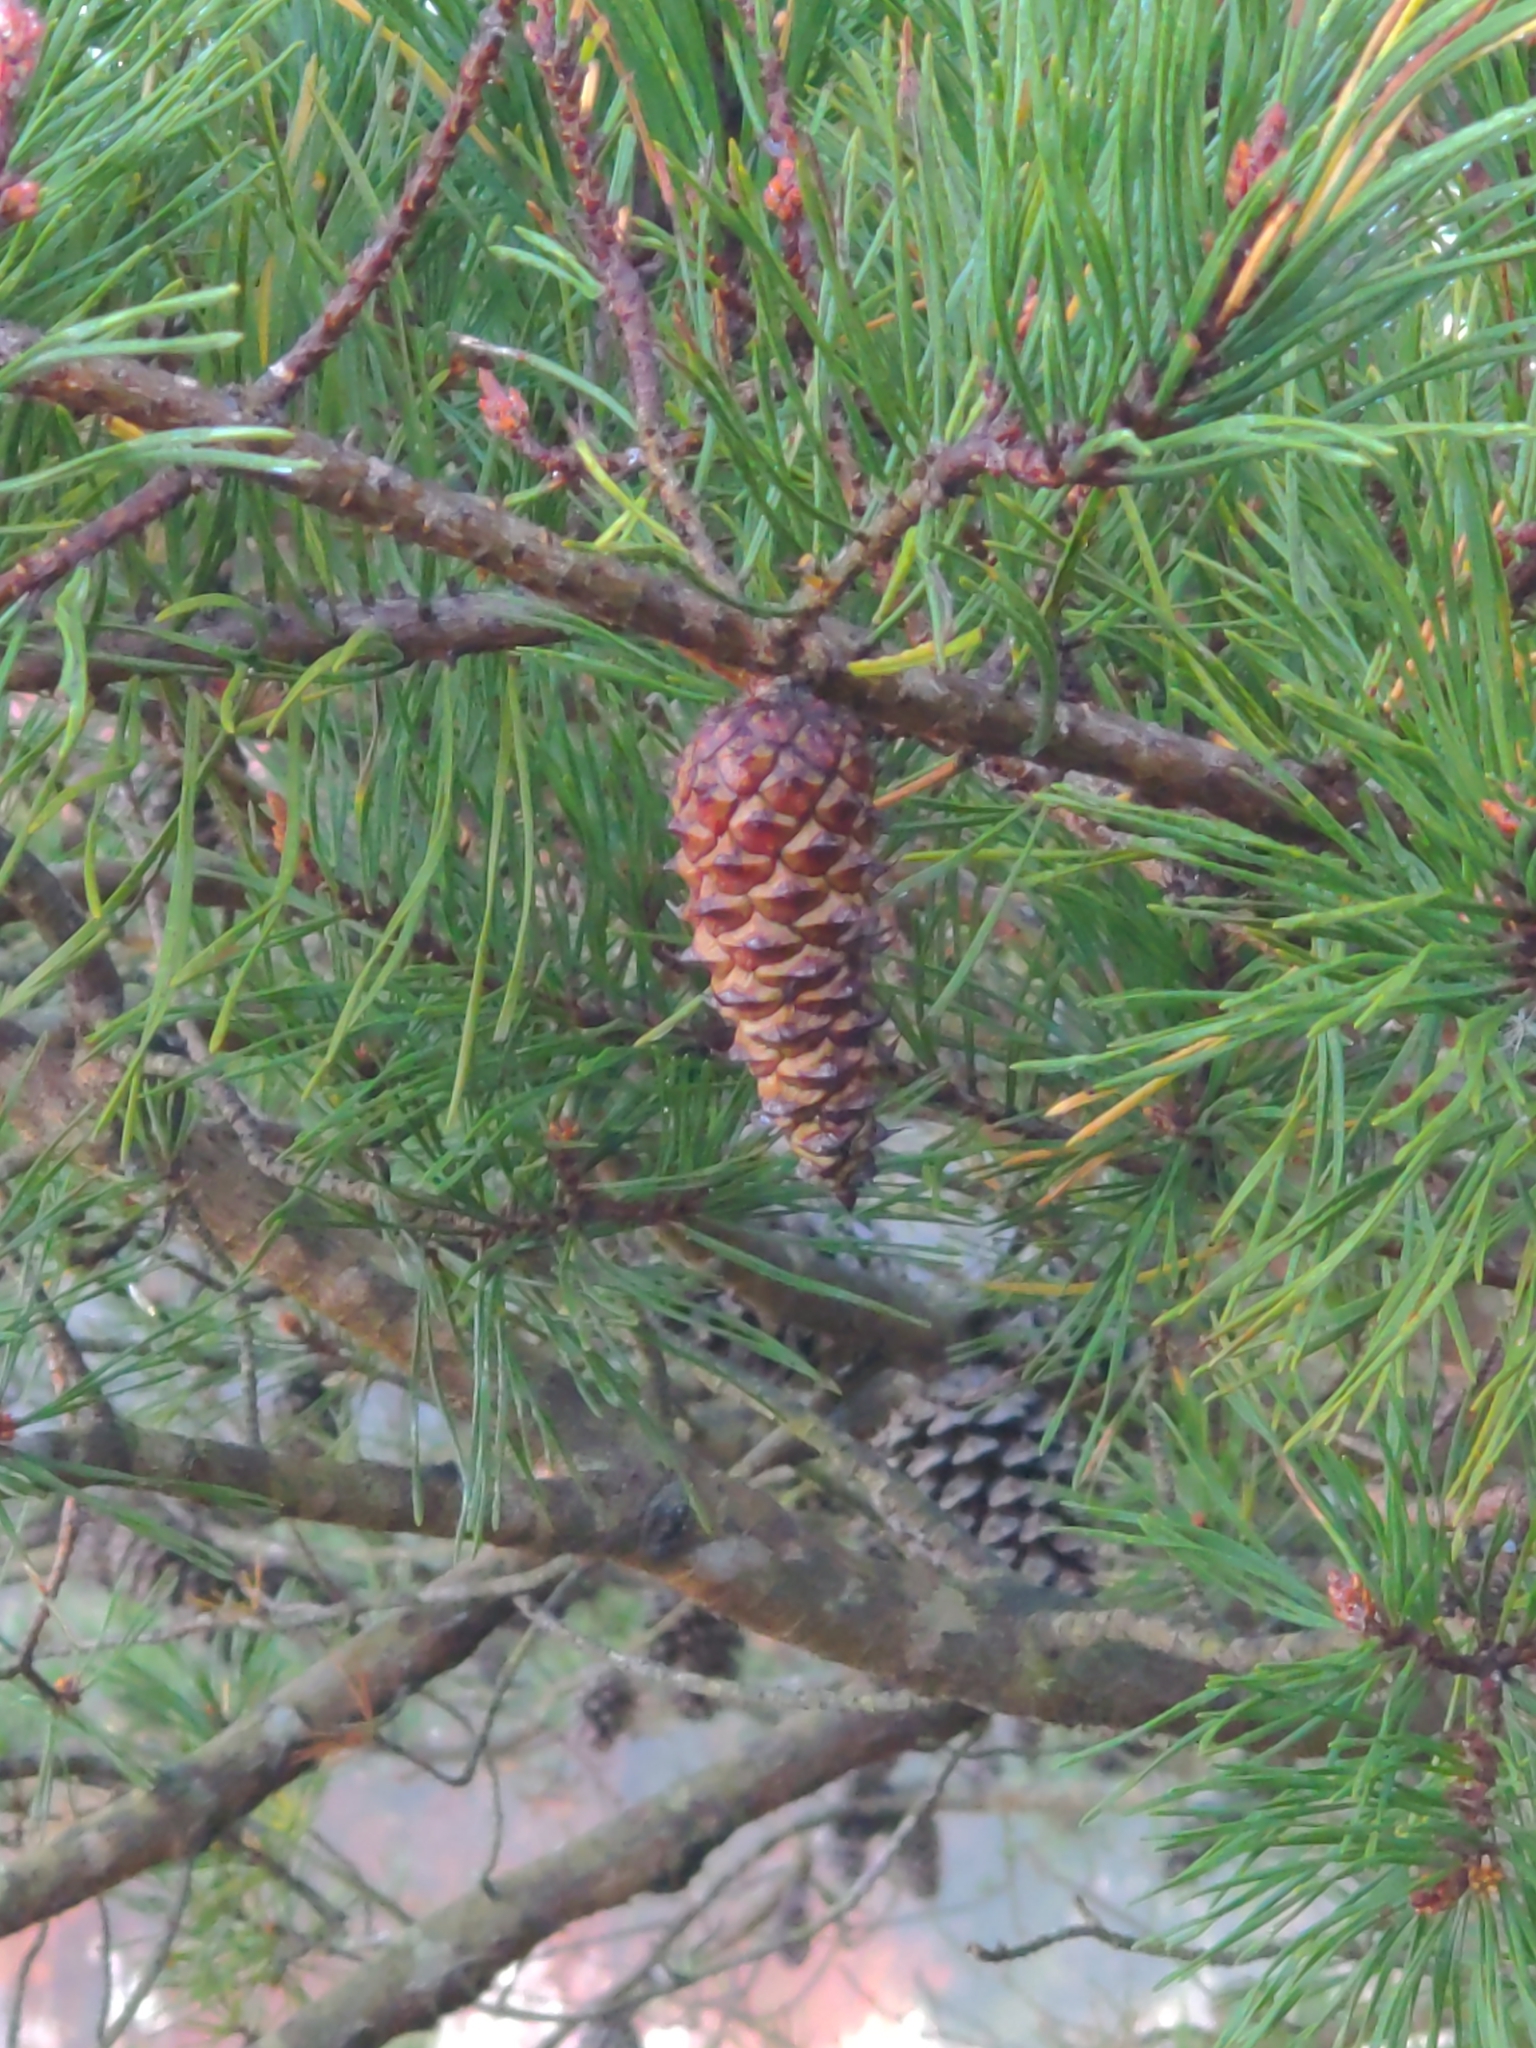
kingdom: Plantae
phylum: Tracheophyta
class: Pinopsida
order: Pinales
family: Pinaceae
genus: Pinus
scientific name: Pinus virginiana
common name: Scrub pine
